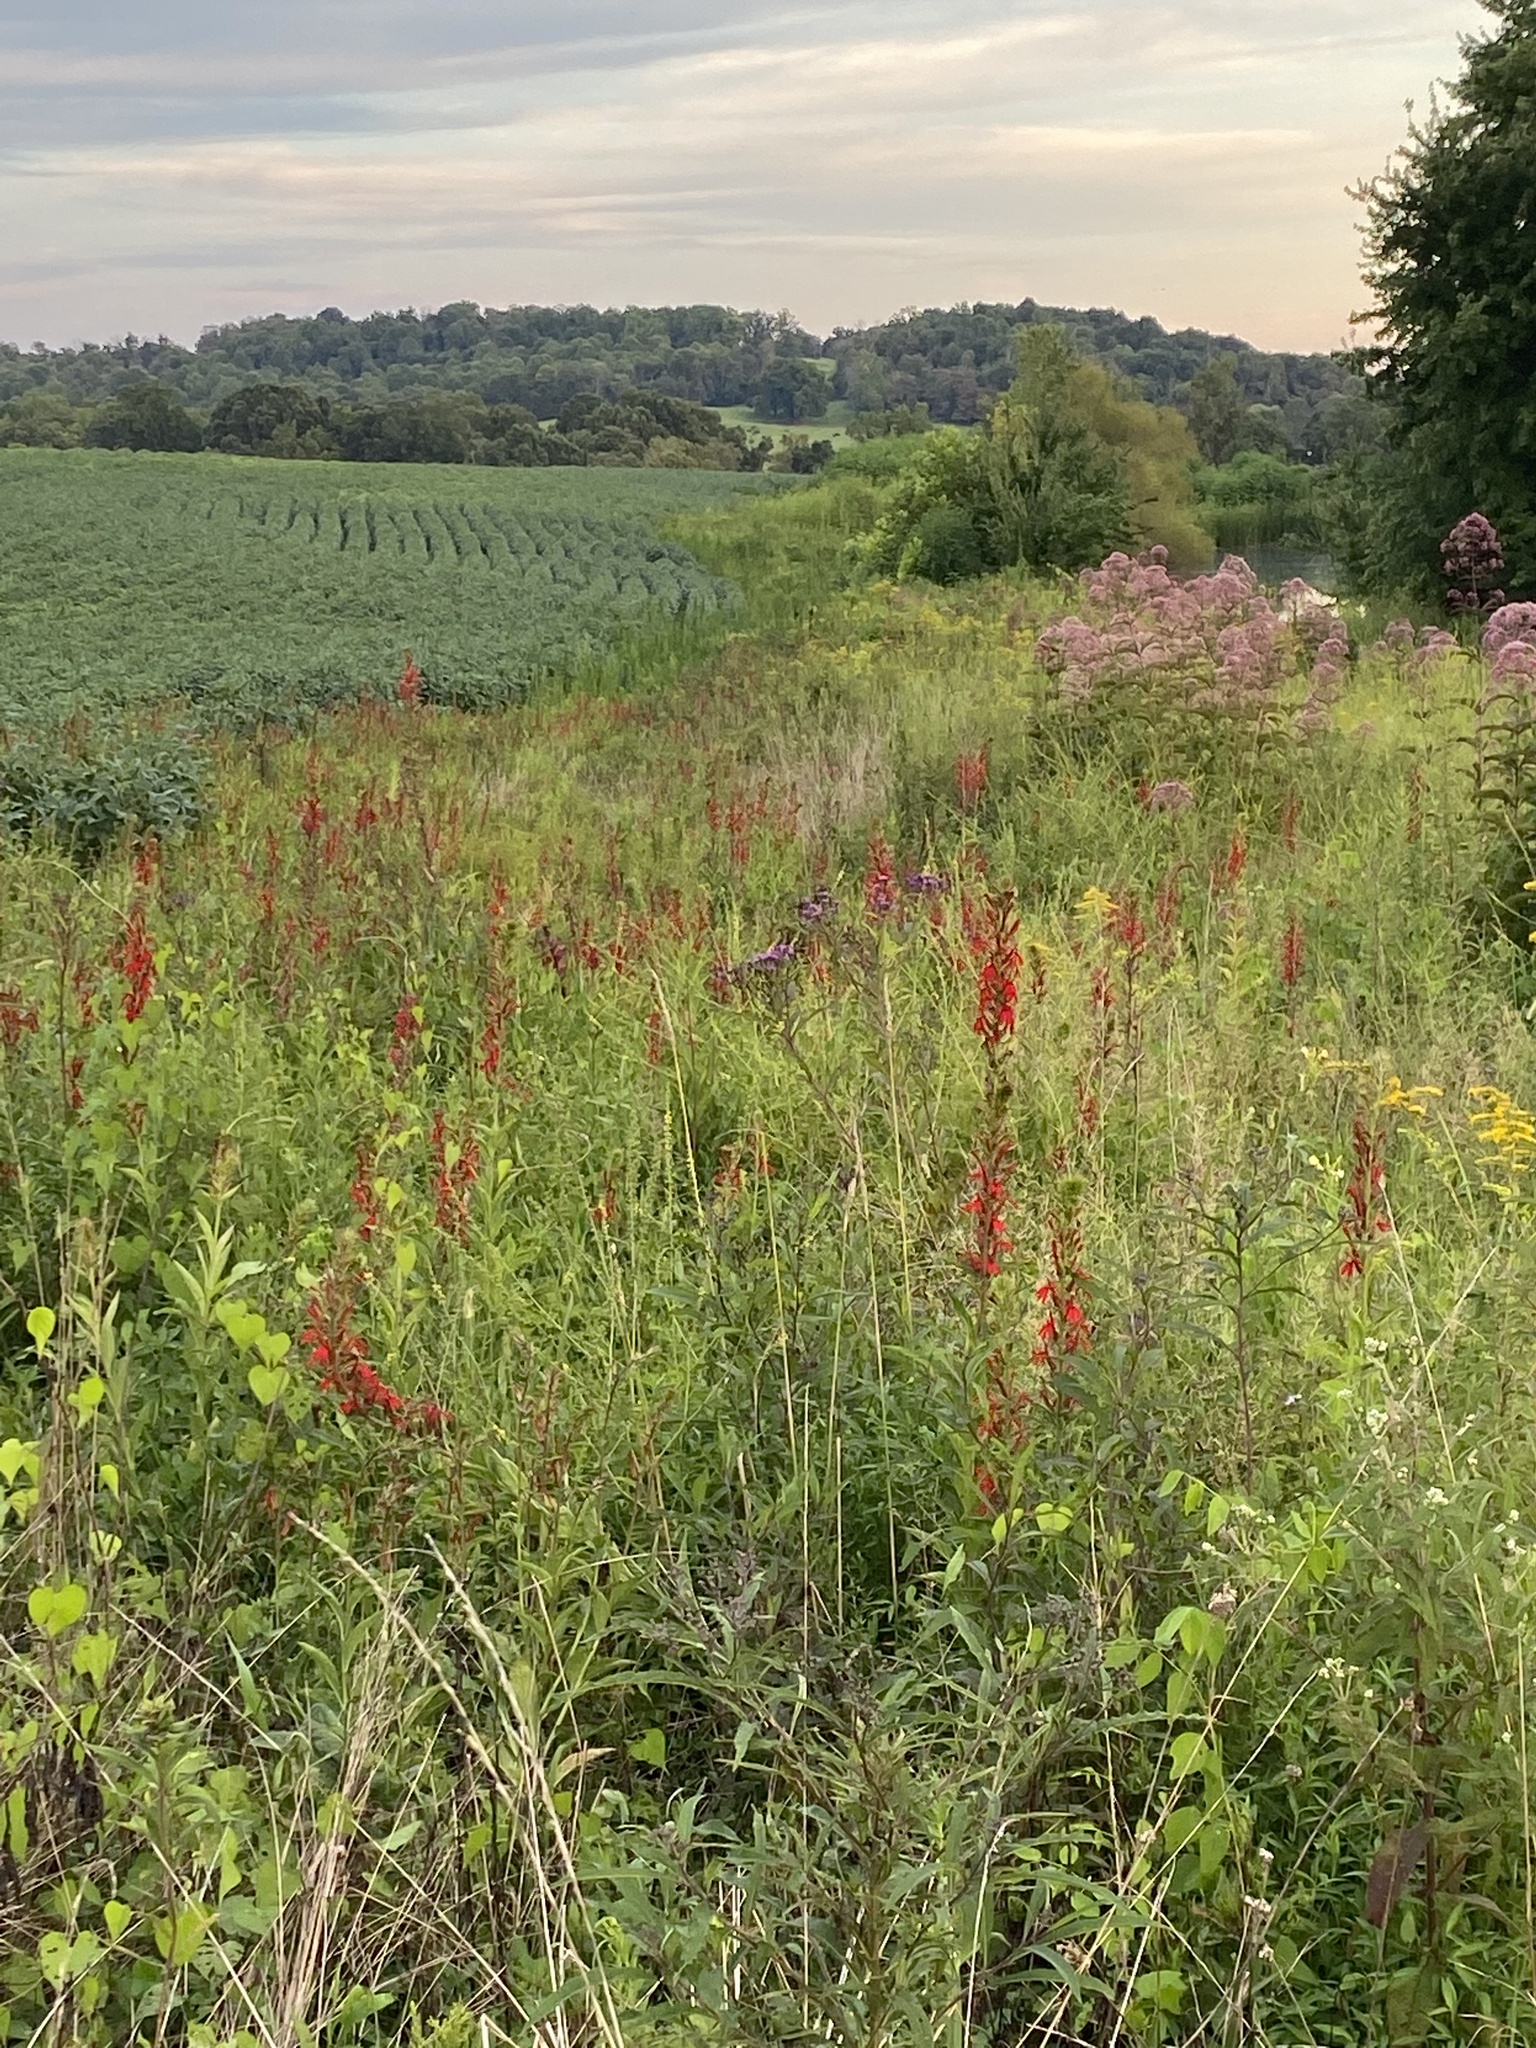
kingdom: Plantae
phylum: Tracheophyta
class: Magnoliopsida
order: Asterales
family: Campanulaceae
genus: Lobelia
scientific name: Lobelia cardinalis
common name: Cardinal flower
